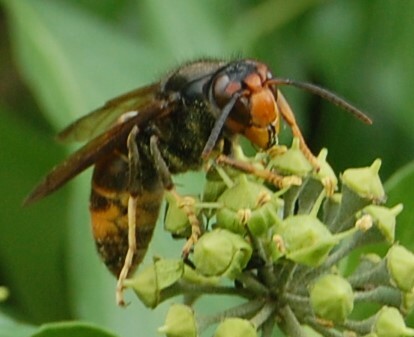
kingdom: Animalia
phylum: Arthropoda
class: Insecta
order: Hymenoptera
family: Vespidae
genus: Vespa
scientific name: Vespa velutina
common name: Asian hornet
